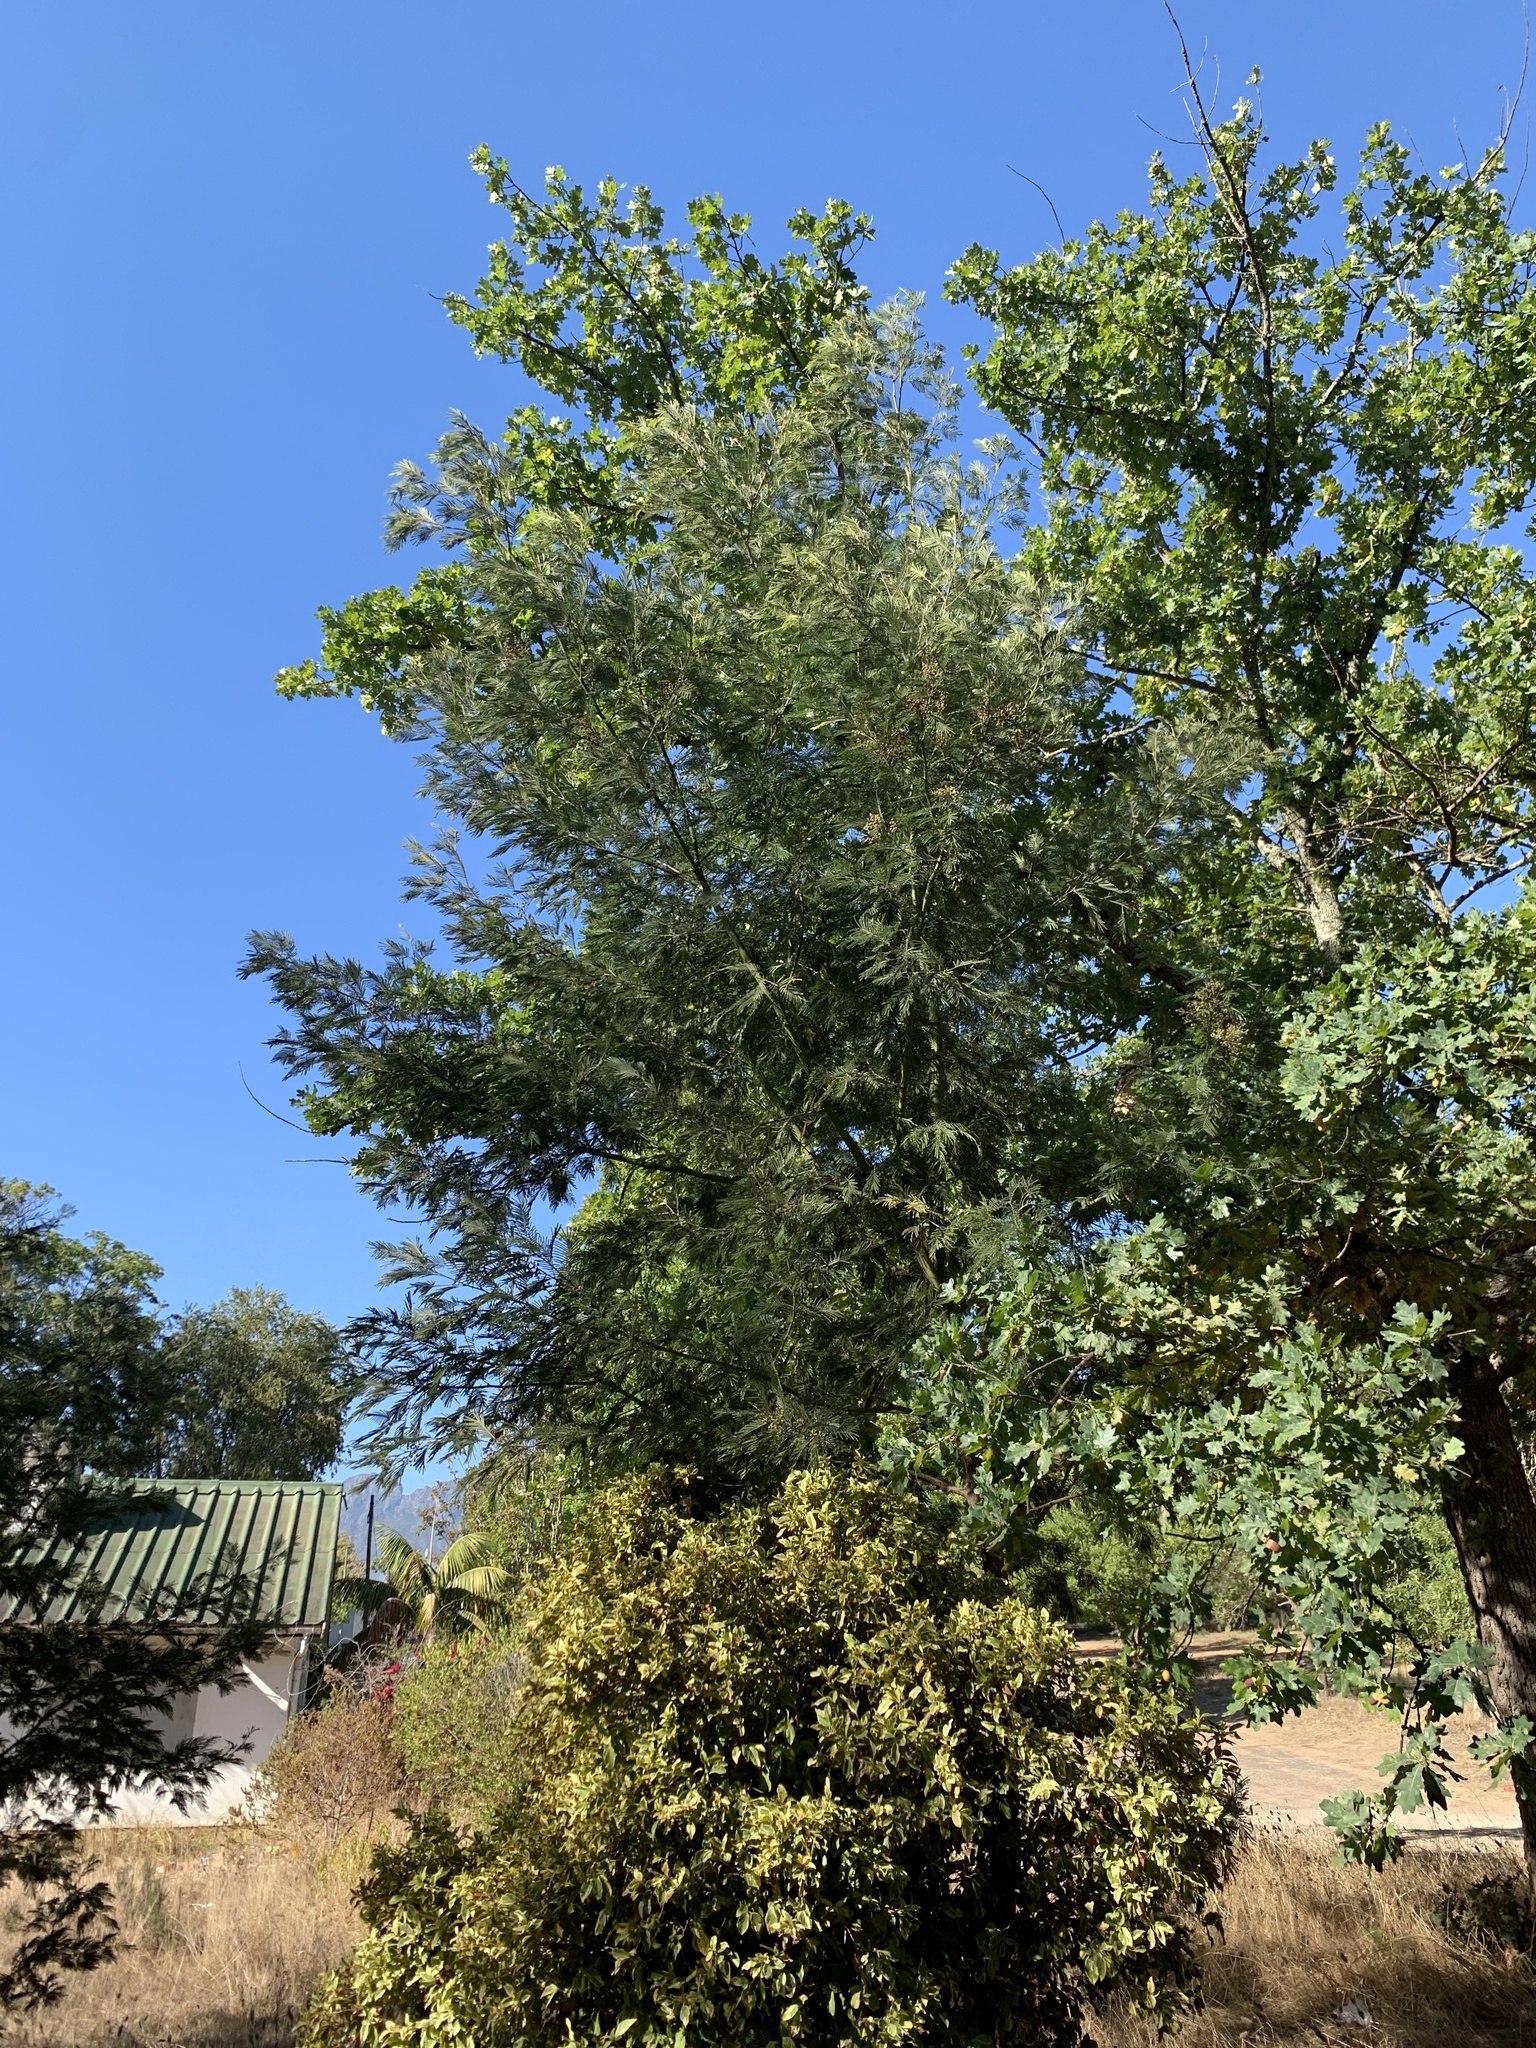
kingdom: Plantae
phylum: Tracheophyta
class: Magnoliopsida
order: Fabales
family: Fabaceae
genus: Acacia
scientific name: Acacia mearnsii
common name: Black wattle
